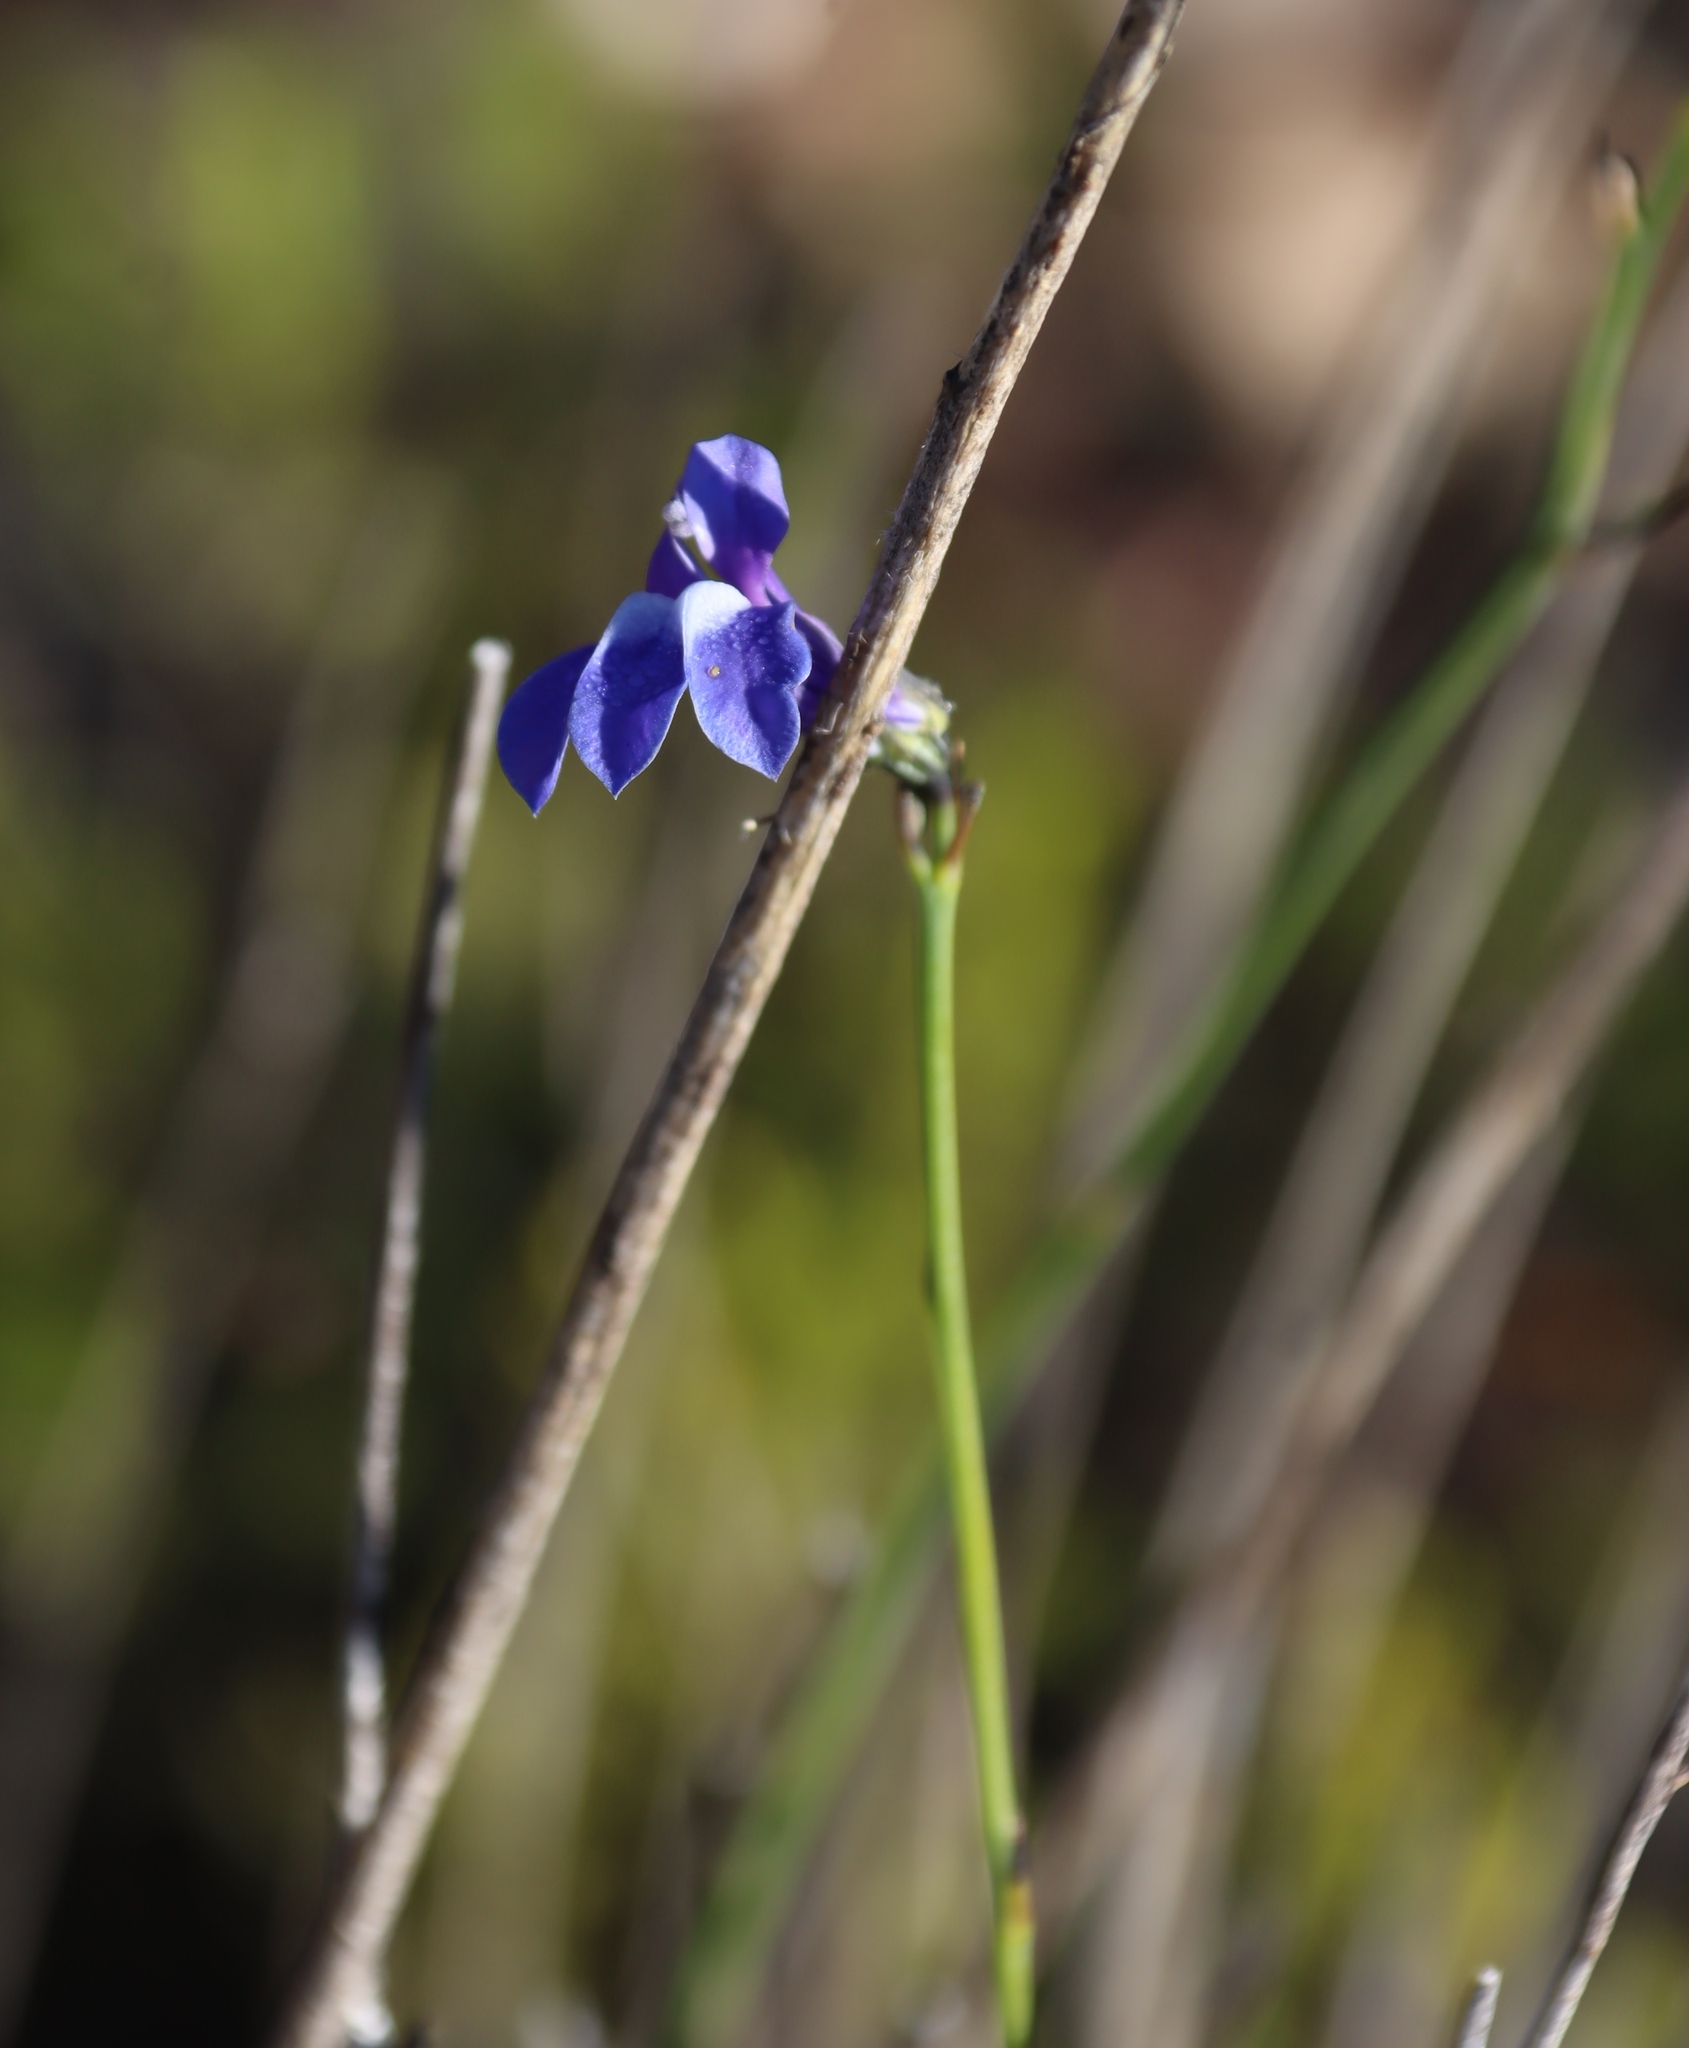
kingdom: Plantae
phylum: Tracheophyta
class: Magnoliopsida
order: Asterales
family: Campanulaceae
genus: Lobelia
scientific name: Lobelia linearis
